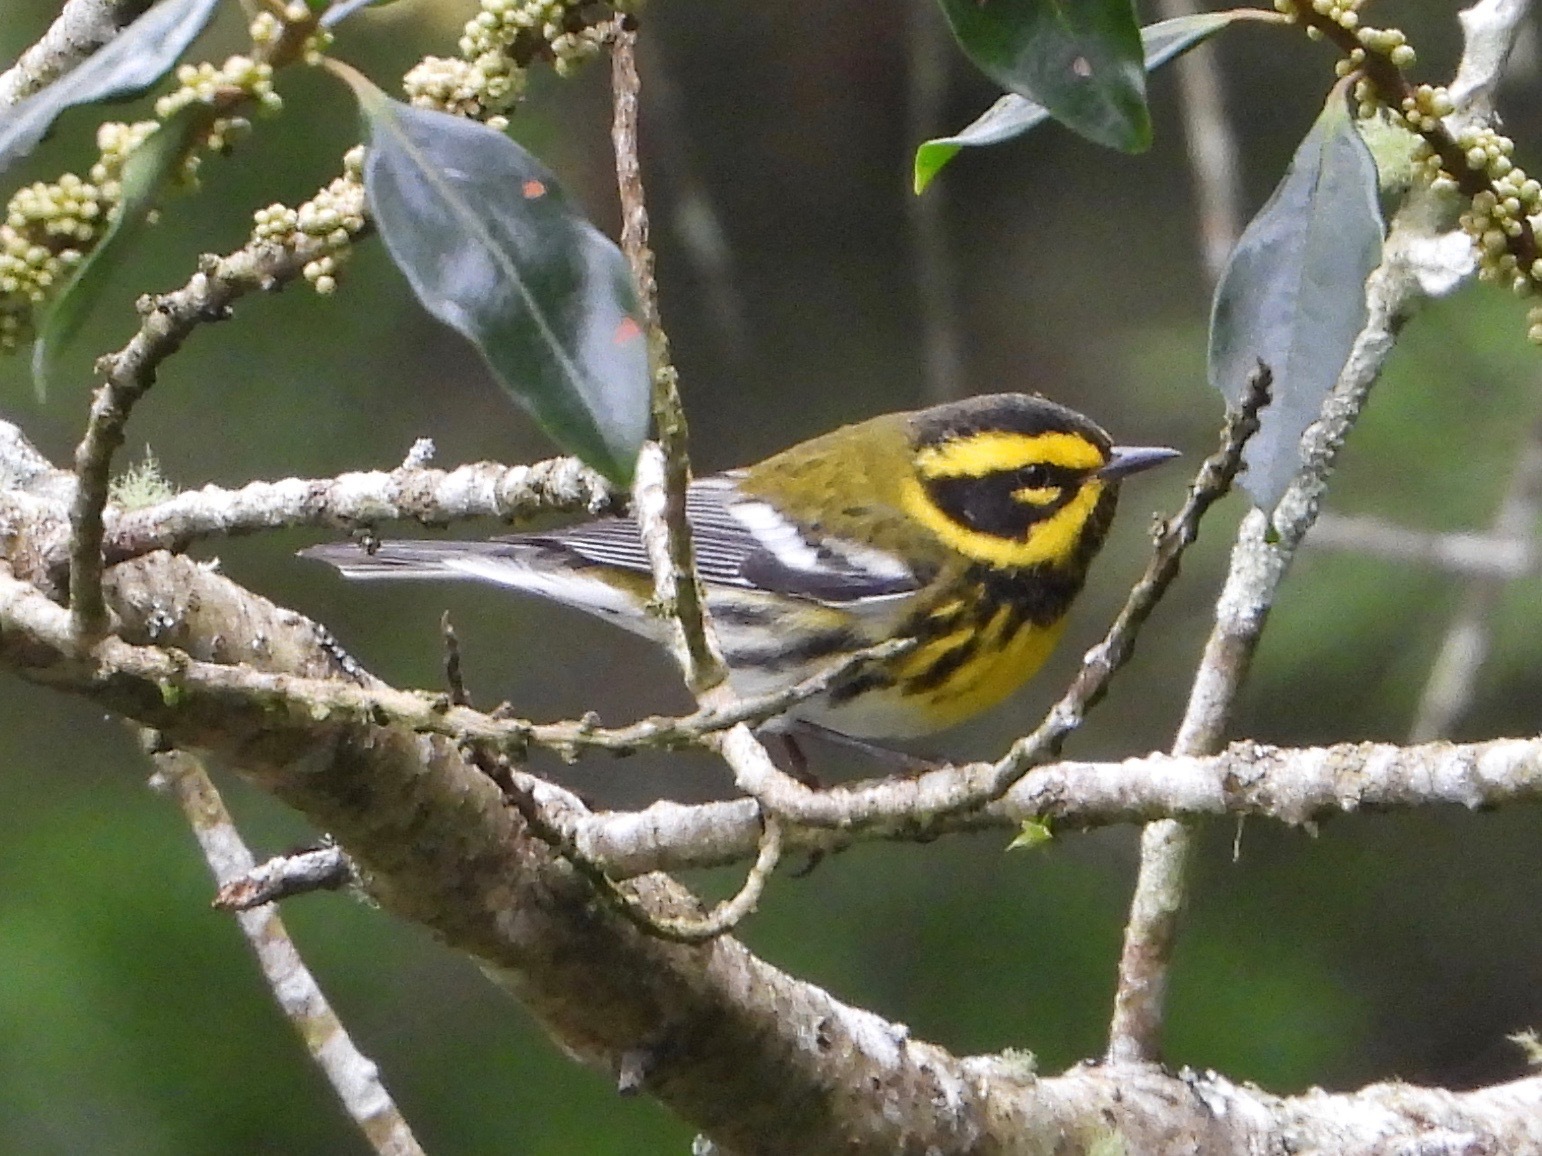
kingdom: Animalia
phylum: Chordata
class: Aves
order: Passeriformes
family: Parulidae
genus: Setophaga
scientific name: Setophaga townsendi
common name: Townsend's warbler
